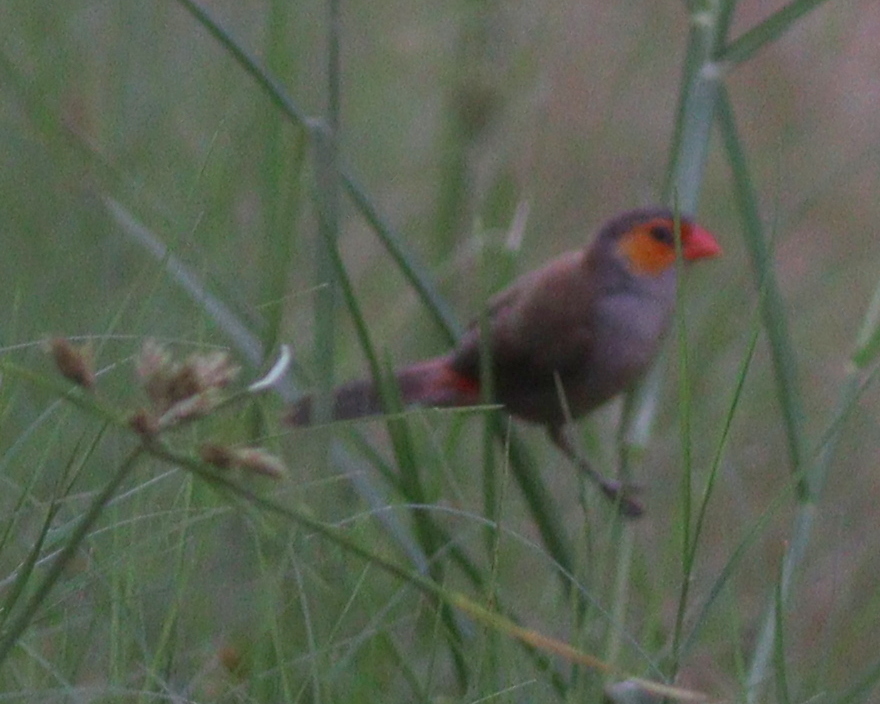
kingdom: Animalia
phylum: Chordata
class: Aves
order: Passeriformes
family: Estrildidae
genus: Estrilda
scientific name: Estrilda melpoda
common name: Orange-cheeked waxbill
